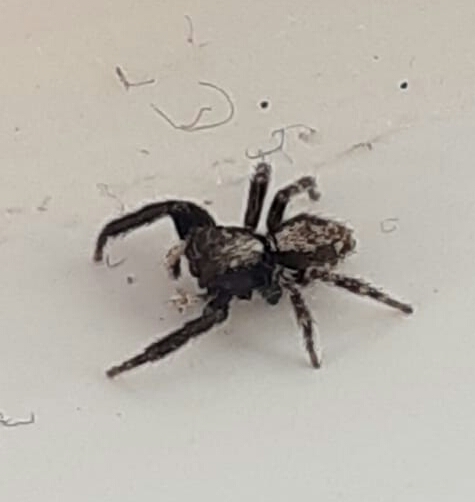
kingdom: Animalia
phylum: Arthropoda
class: Arachnida
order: Araneae
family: Salticidae
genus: Pseudeuophrys
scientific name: Pseudeuophrys lanigera
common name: Jumping spider
